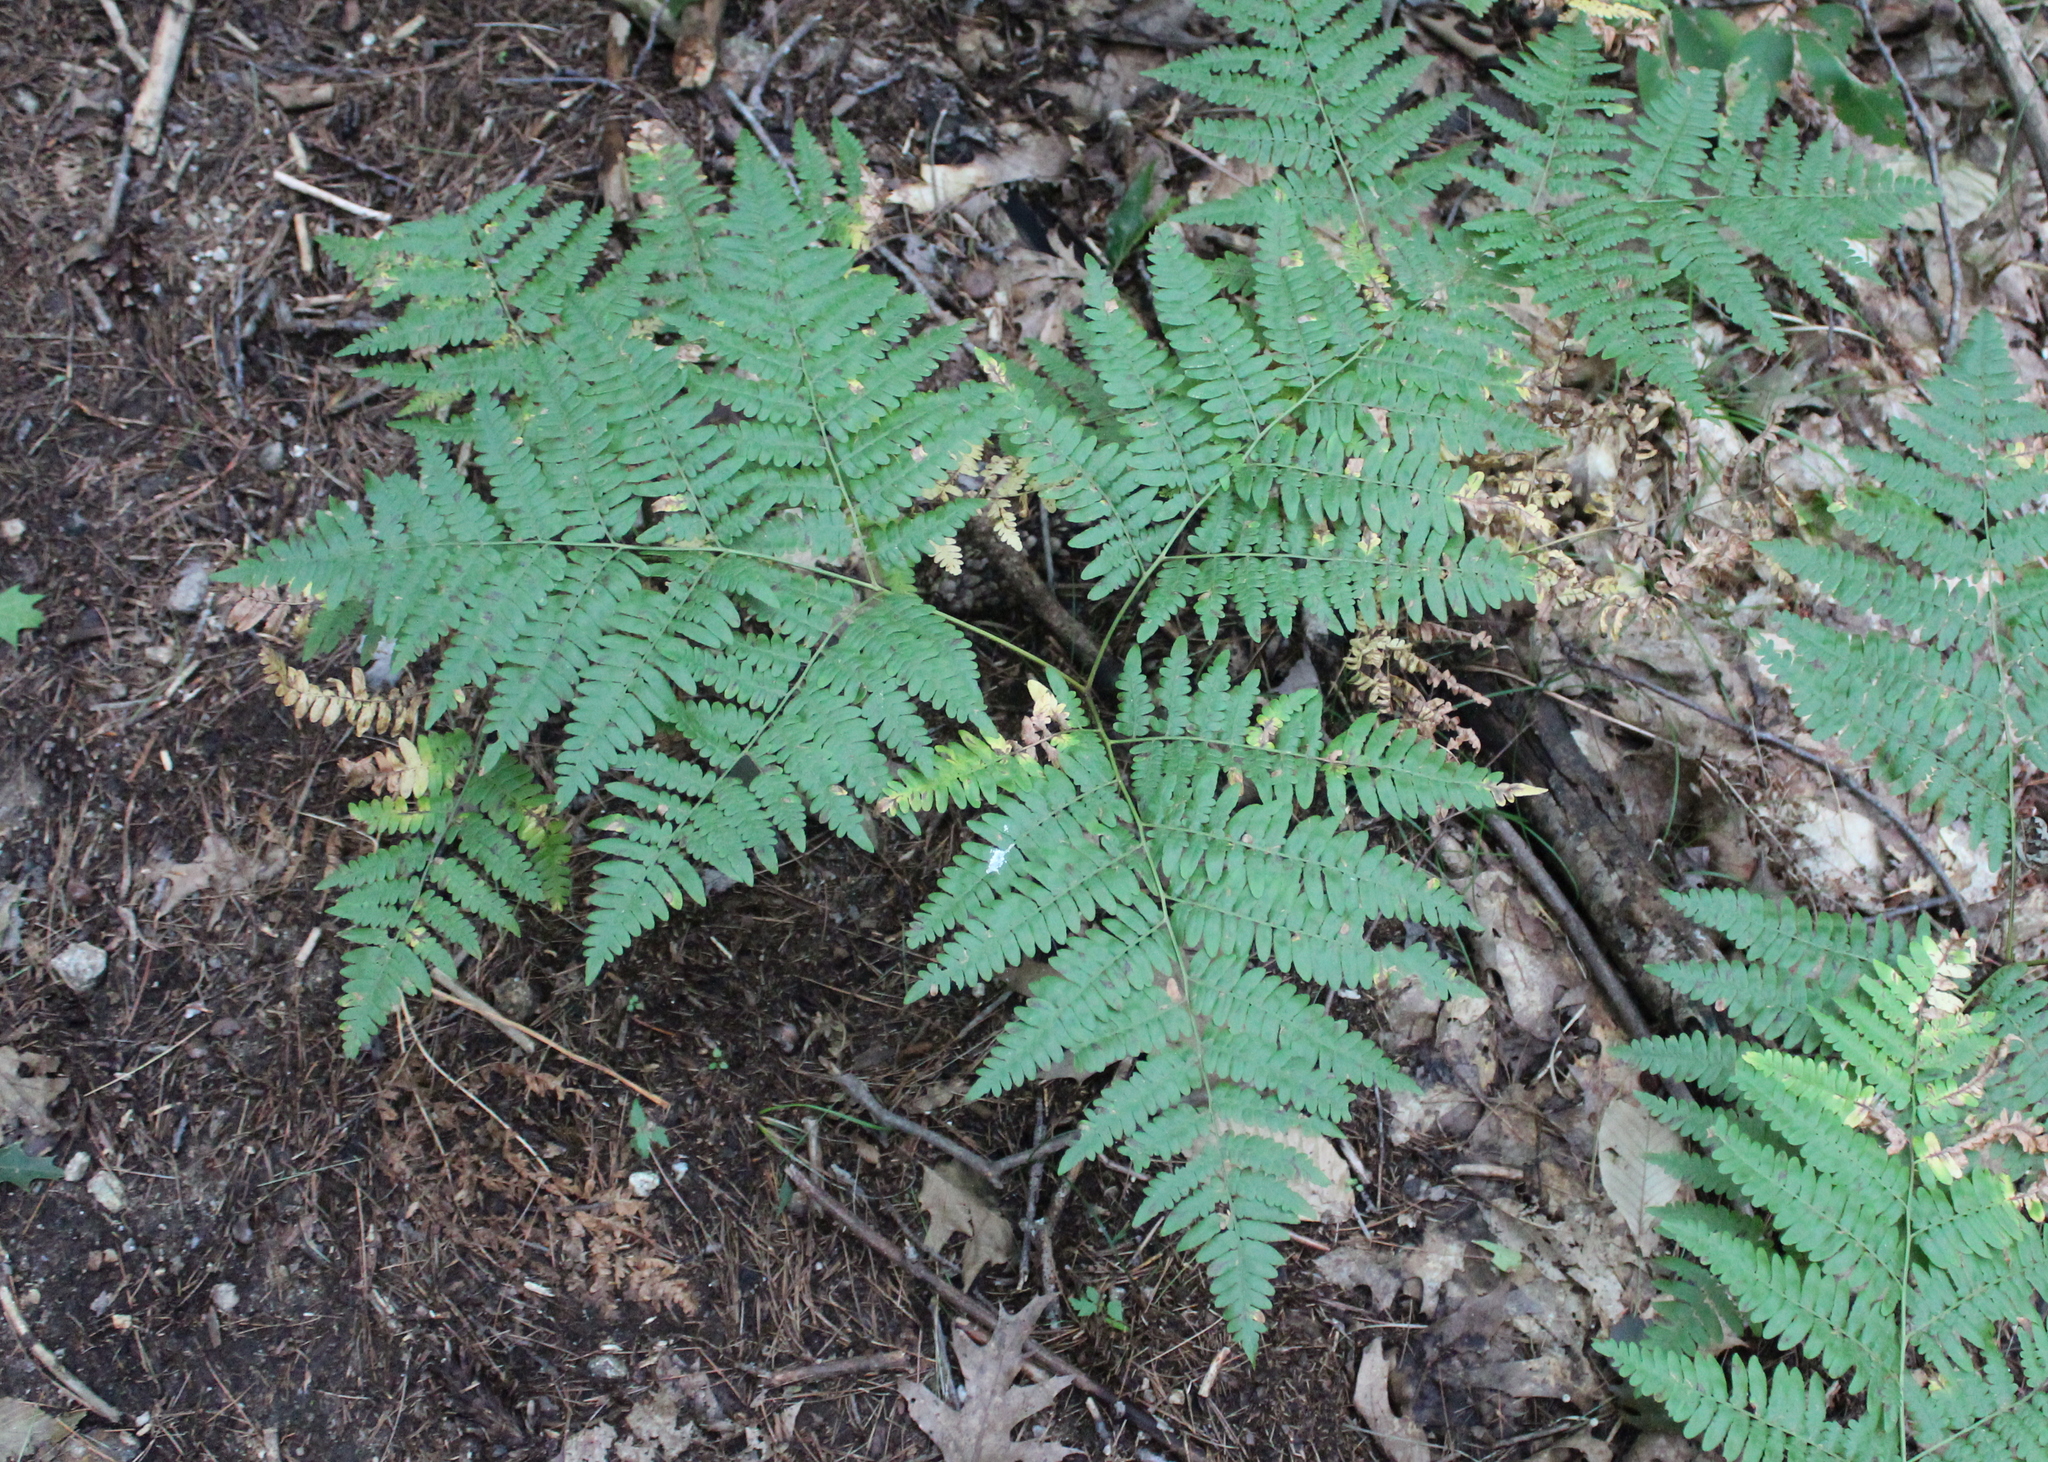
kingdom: Plantae
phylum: Tracheophyta
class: Polypodiopsida
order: Polypodiales
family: Dennstaedtiaceae
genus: Pteridium
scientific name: Pteridium aquilinum
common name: Bracken
